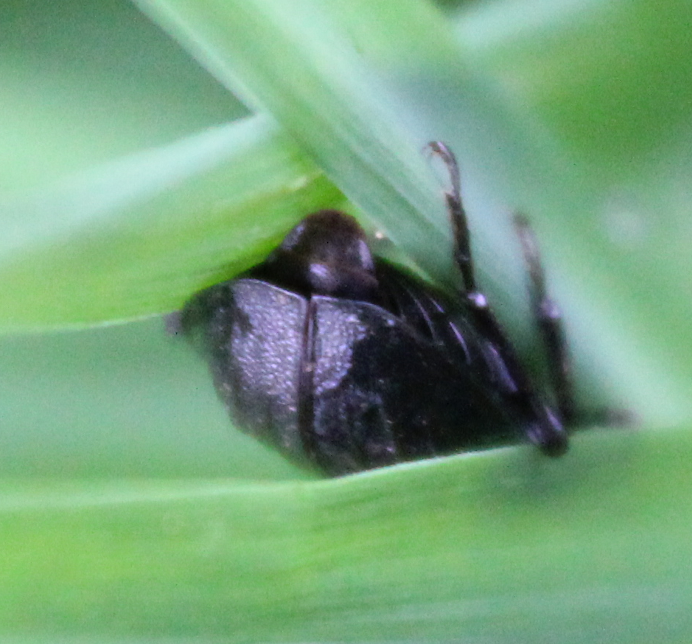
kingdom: Animalia
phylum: Arthropoda
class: Insecta
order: Coleoptera
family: Staphylinidae
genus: Silpha
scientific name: Silpha atrata
